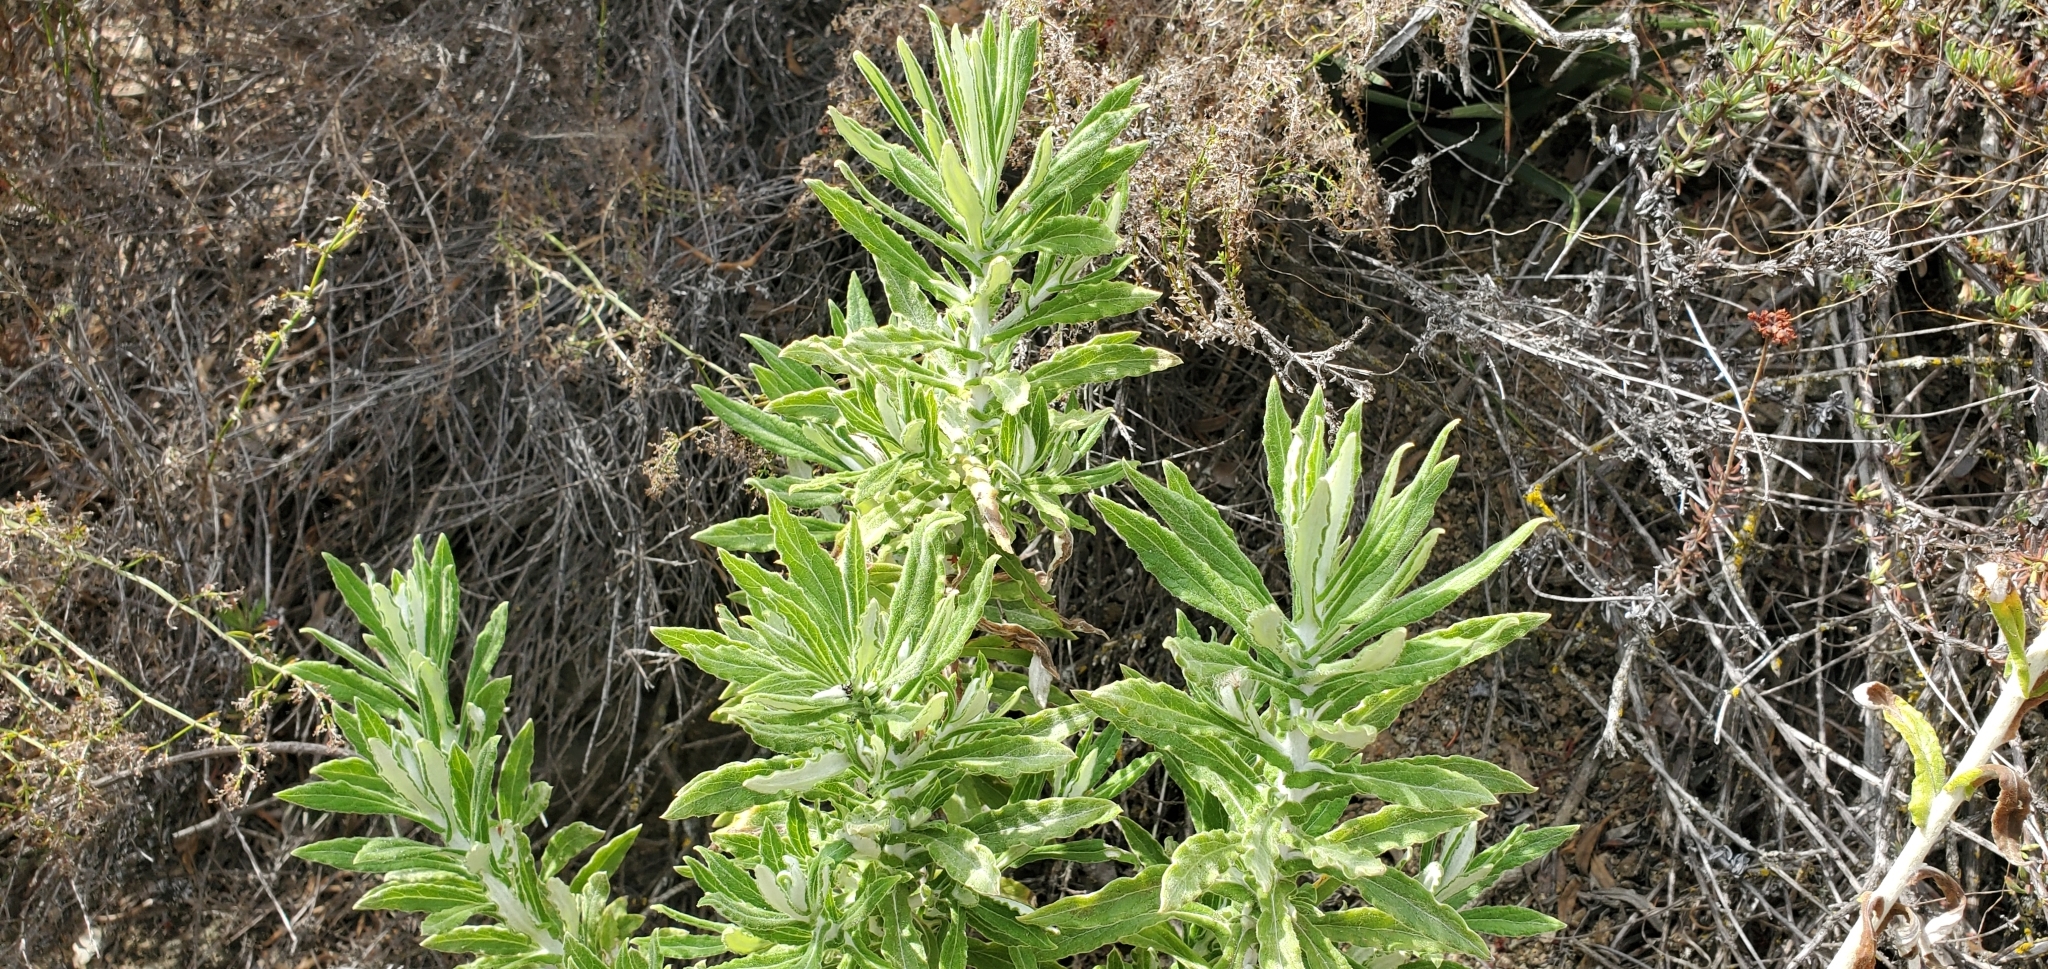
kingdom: Plantae
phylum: Tracheophyta
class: Magnoliopsida
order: Asterales
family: Asteraceae
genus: Pseudognaphalium
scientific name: Pseudognaphalium biolettii
